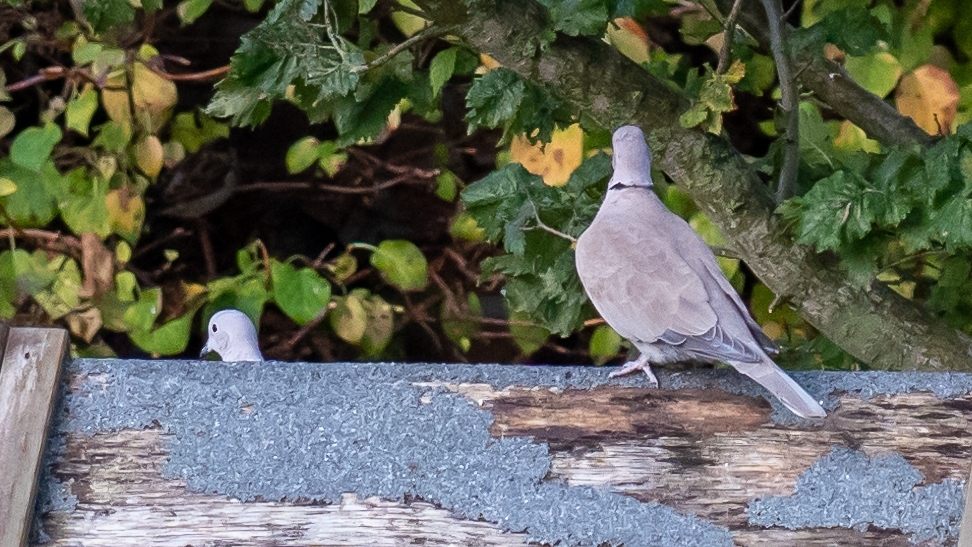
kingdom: Animalia
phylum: Chordata
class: Aves
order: Columbiformes
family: Columbidae
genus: Streptopelia
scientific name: Streptopelia decaocto
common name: Eurasian collared dove
